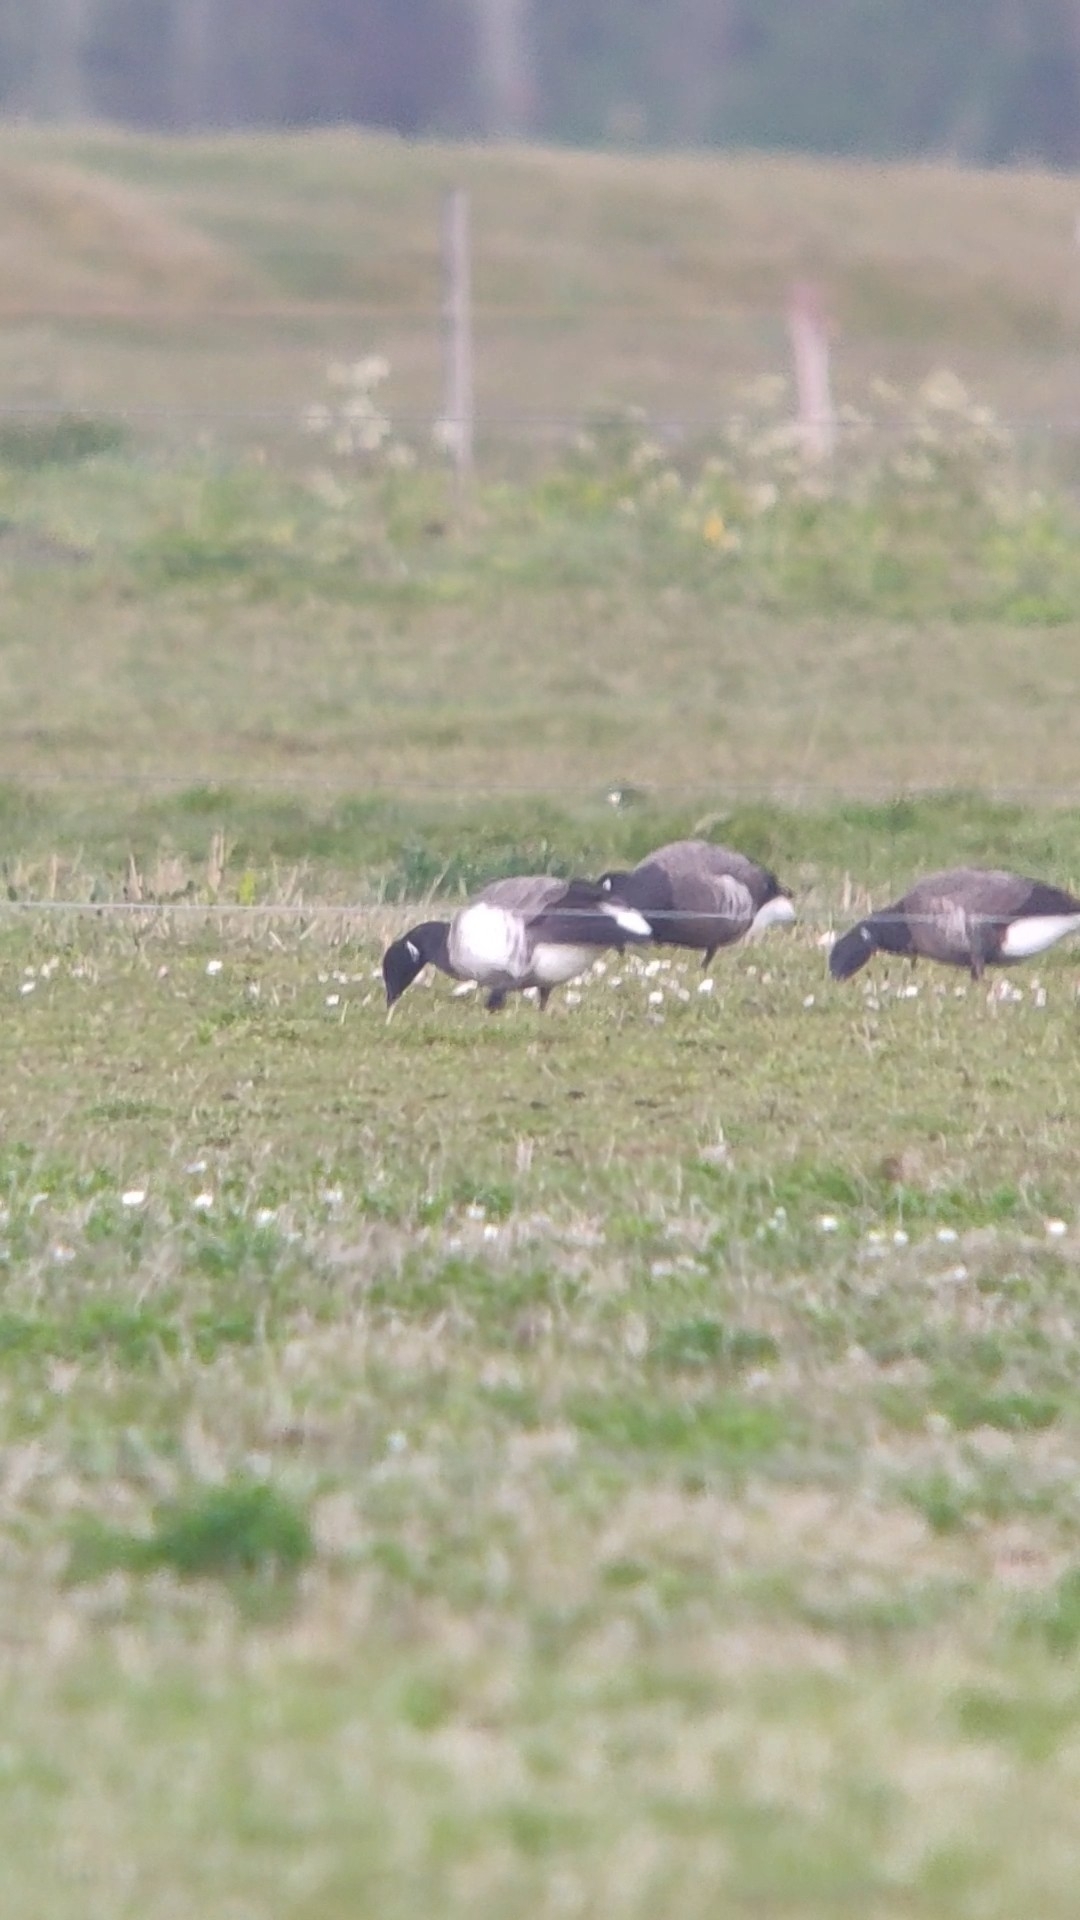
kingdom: Animalia
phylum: Chordata
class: Aves
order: Anseriformes
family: Anatidae
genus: Branta
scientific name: Branta bernicla
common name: Brant goose
